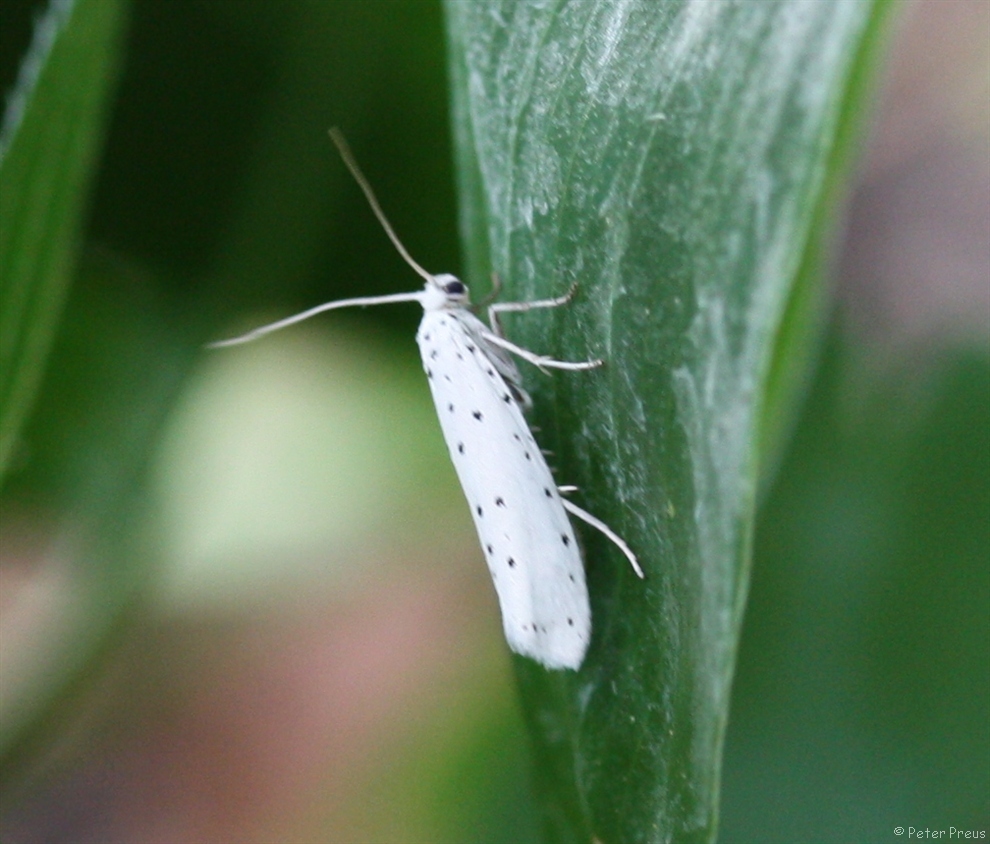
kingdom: Animalia
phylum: Arthropoda
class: Insecta
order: Lepidoptera
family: Yponomeutidae
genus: Yponomeuta
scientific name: Yponomeuta
